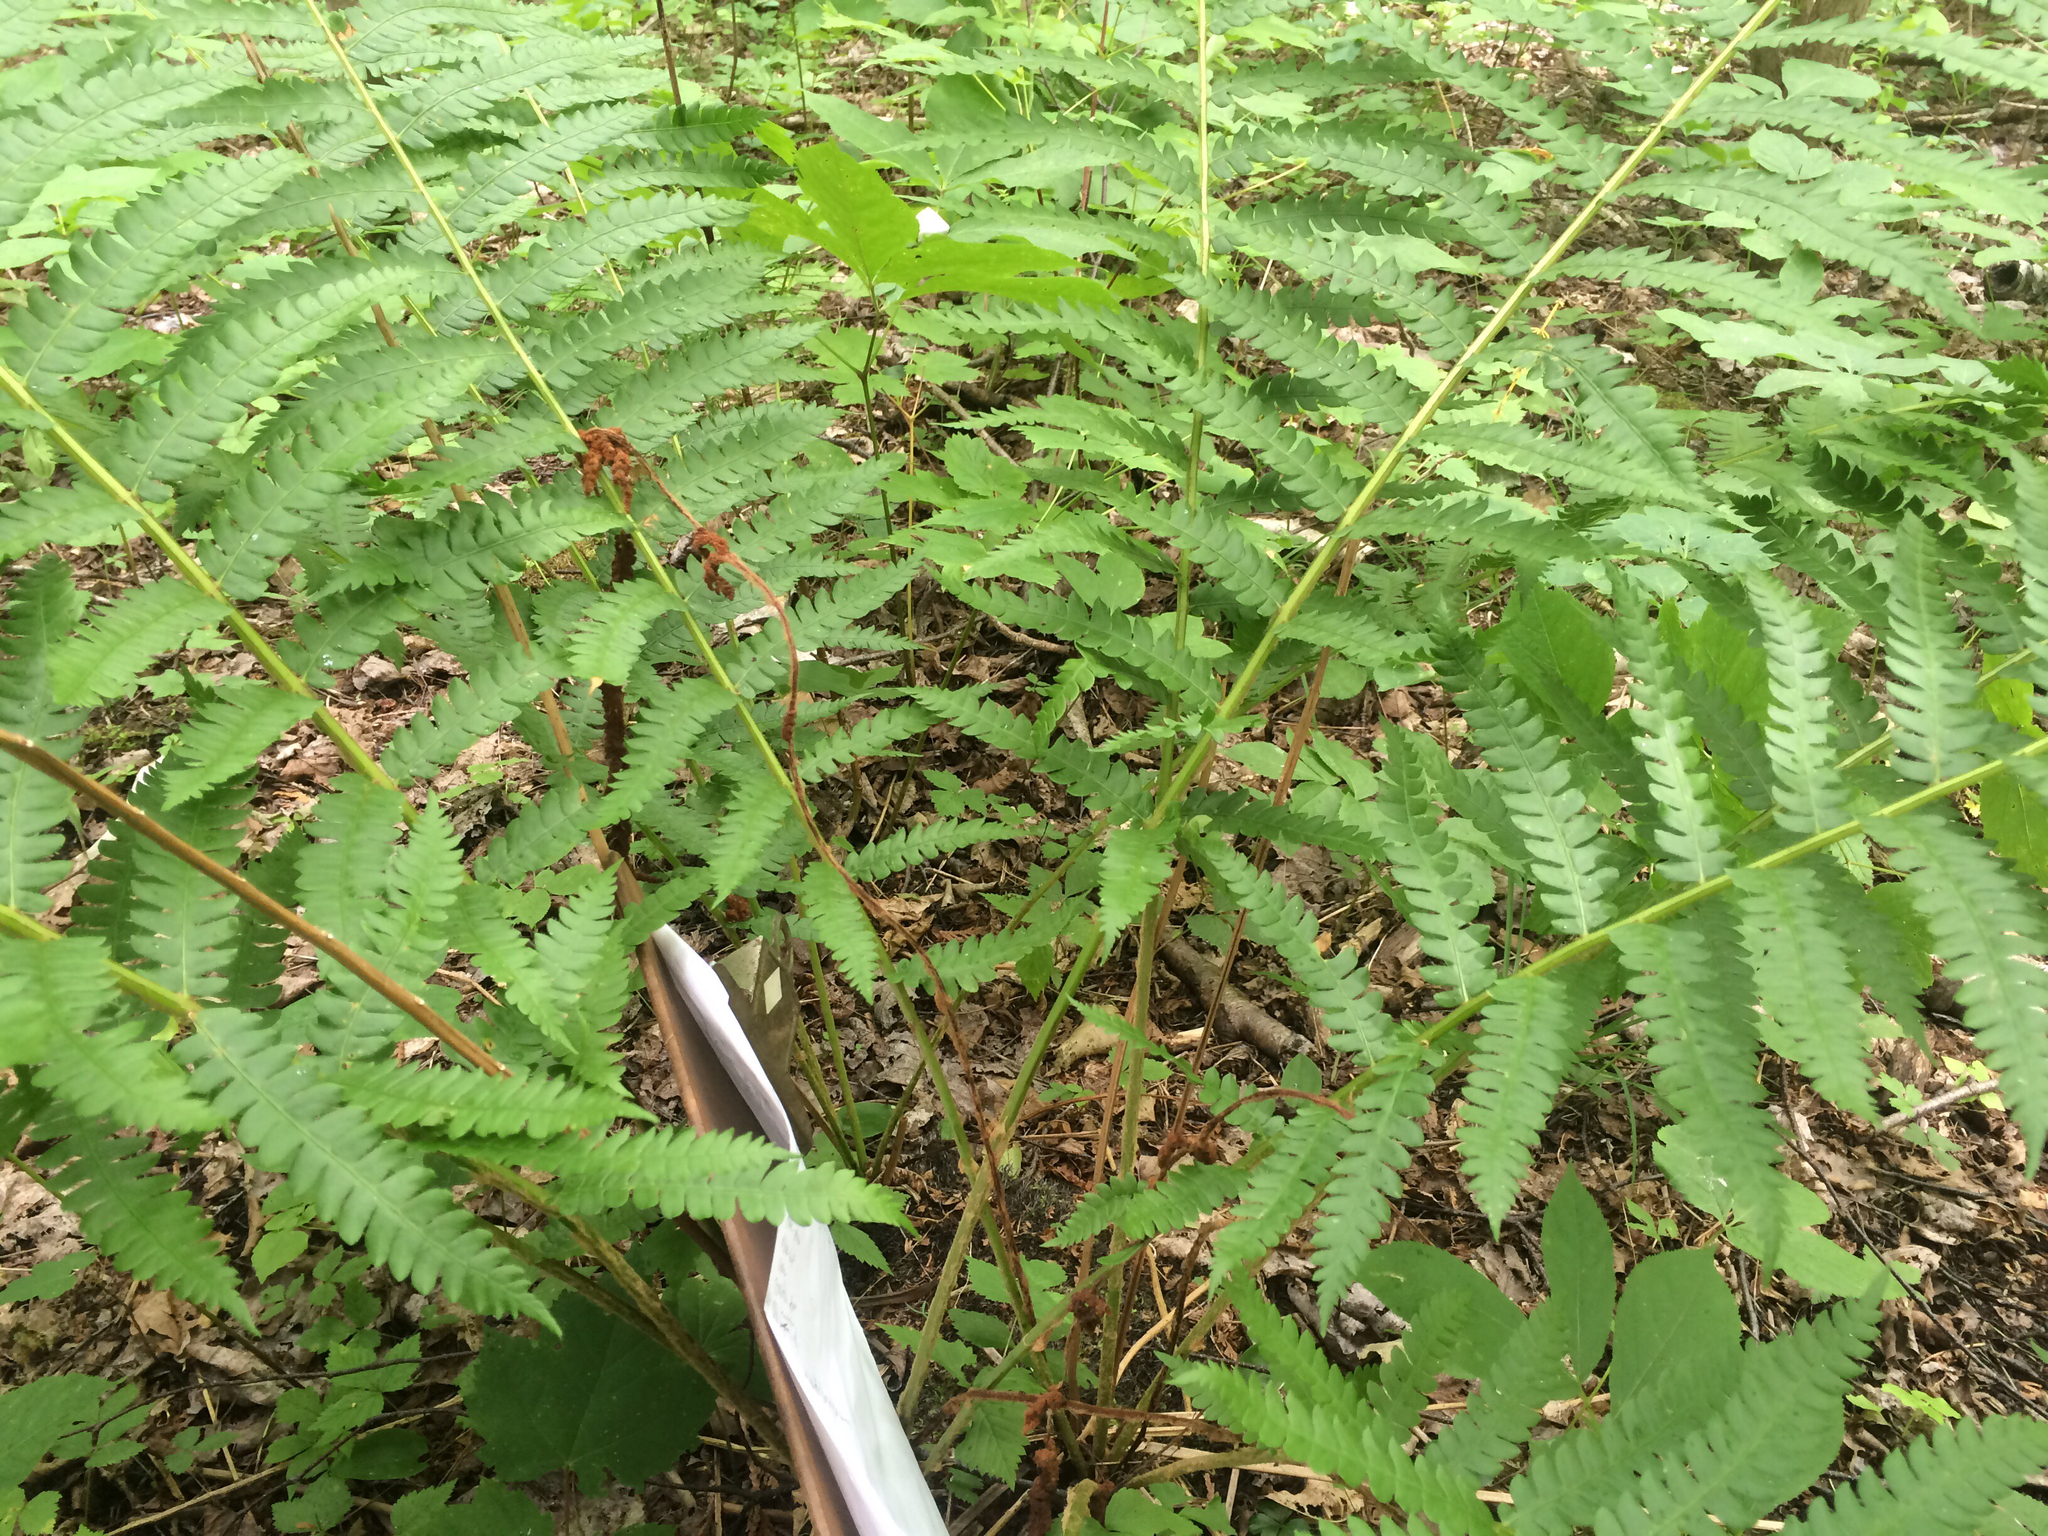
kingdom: Plantae
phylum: Tracheophyta
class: Polypodiopsida
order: Osmundales
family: Osmundaceae
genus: Osmundastrum
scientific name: Osmundastrum cinnamomeum
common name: Cinnamon fern
